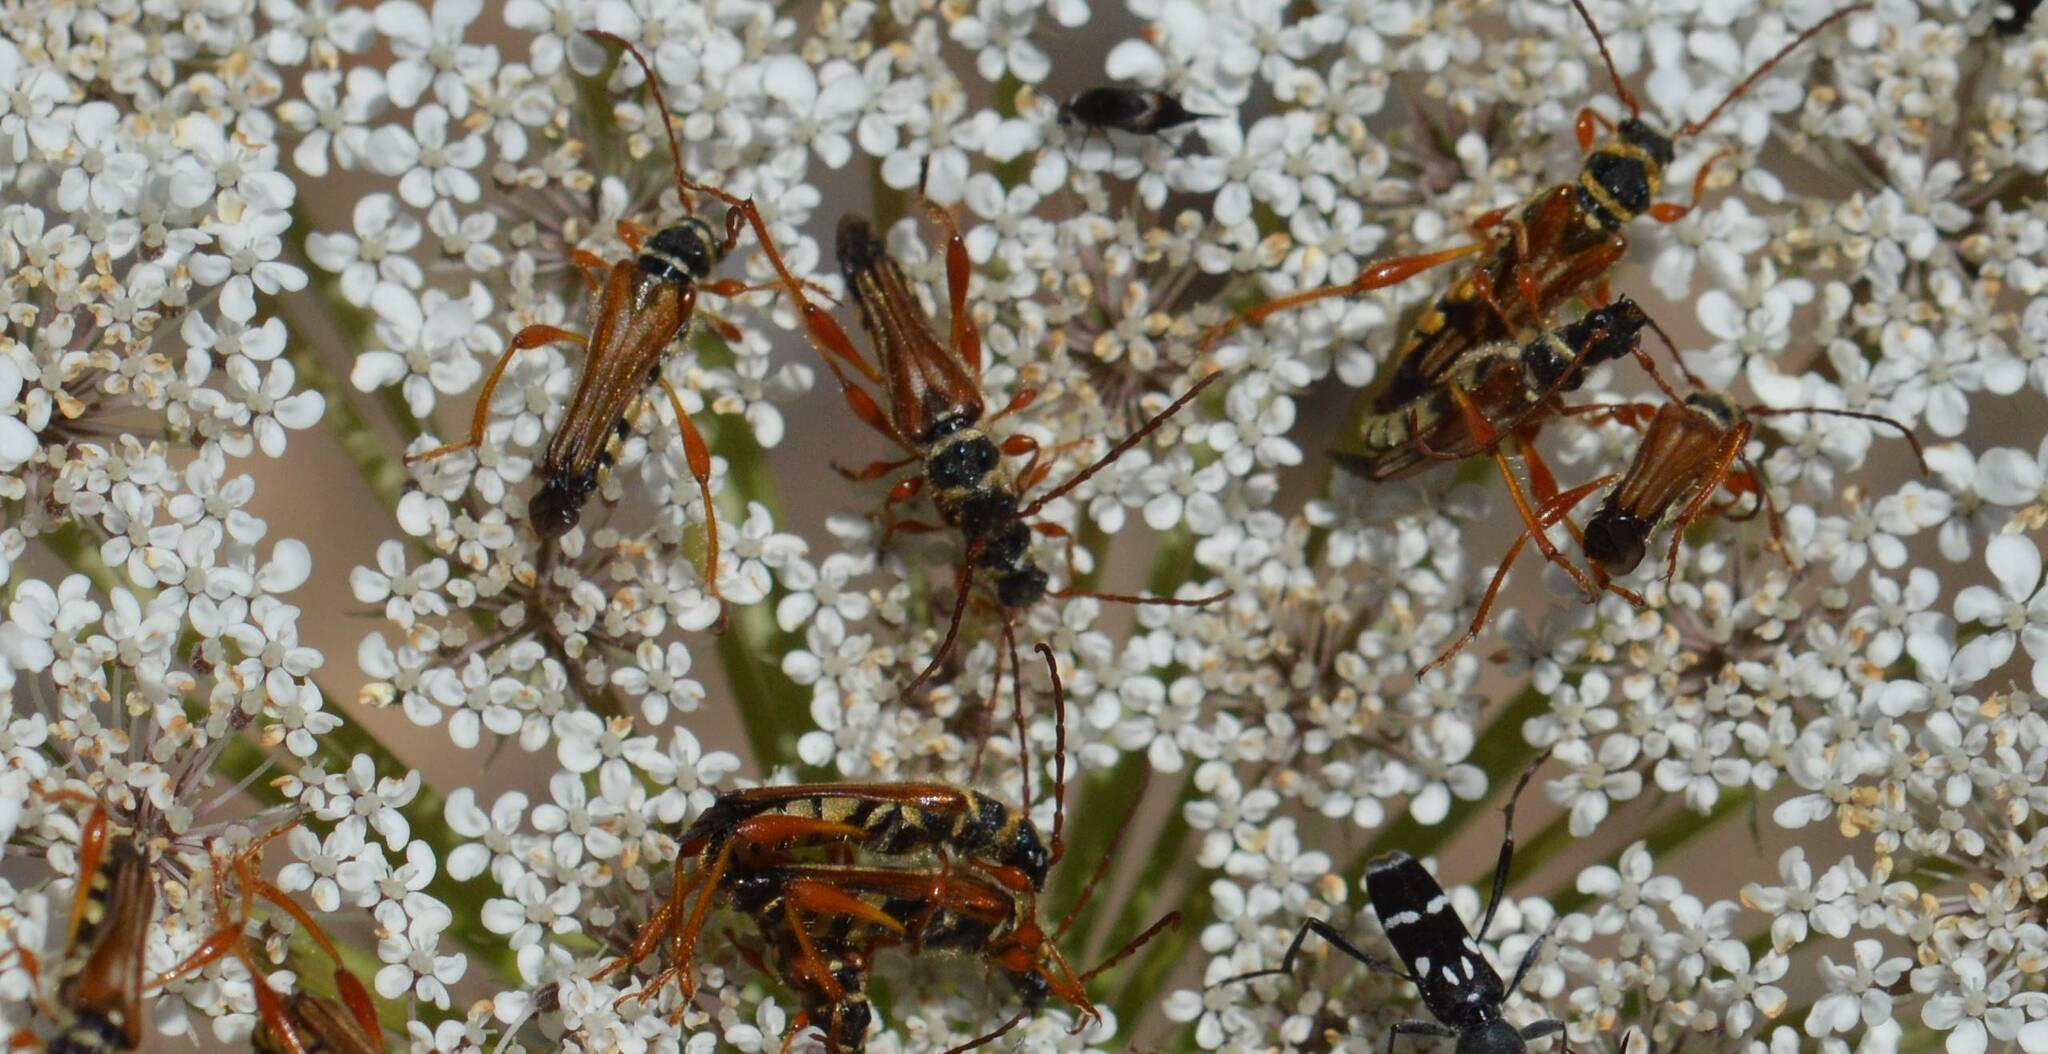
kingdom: Animalia
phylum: Arthropoda
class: Insecta
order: Coleoptera
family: Cerambycidae
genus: Stenopterus
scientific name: Stenopterus mauritanicus
